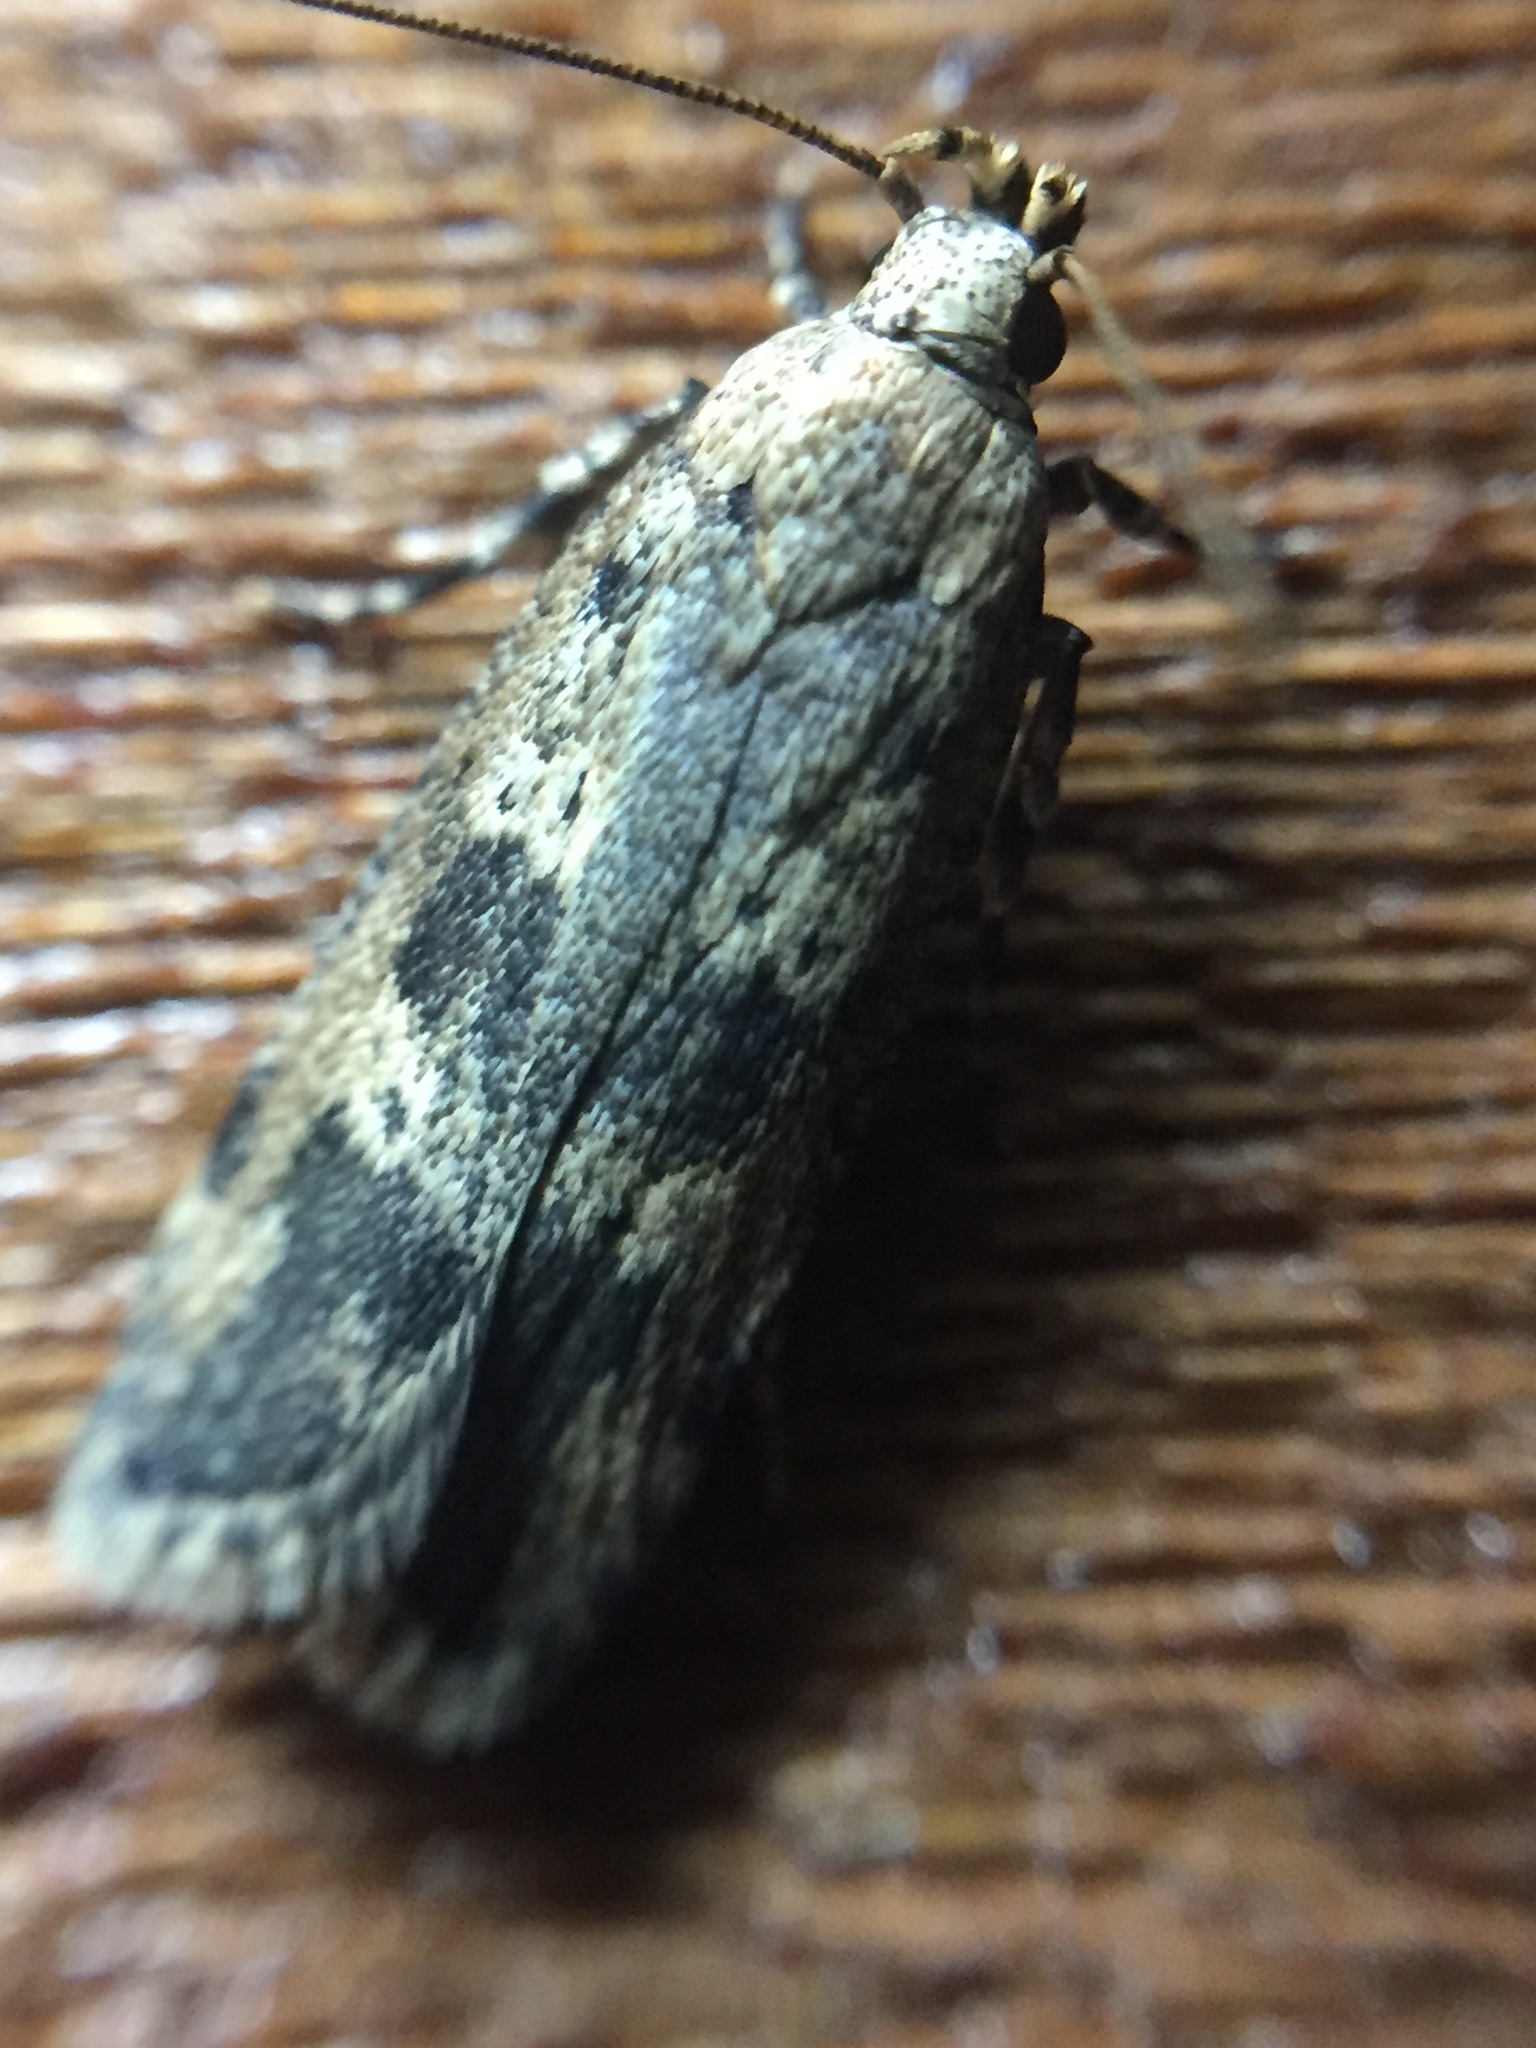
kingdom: Animalia
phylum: Arthropoda
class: Insecta
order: Lepidoptera
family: Gelechiidae
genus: Anisoplaca
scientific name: Anisoplaca cosmia
